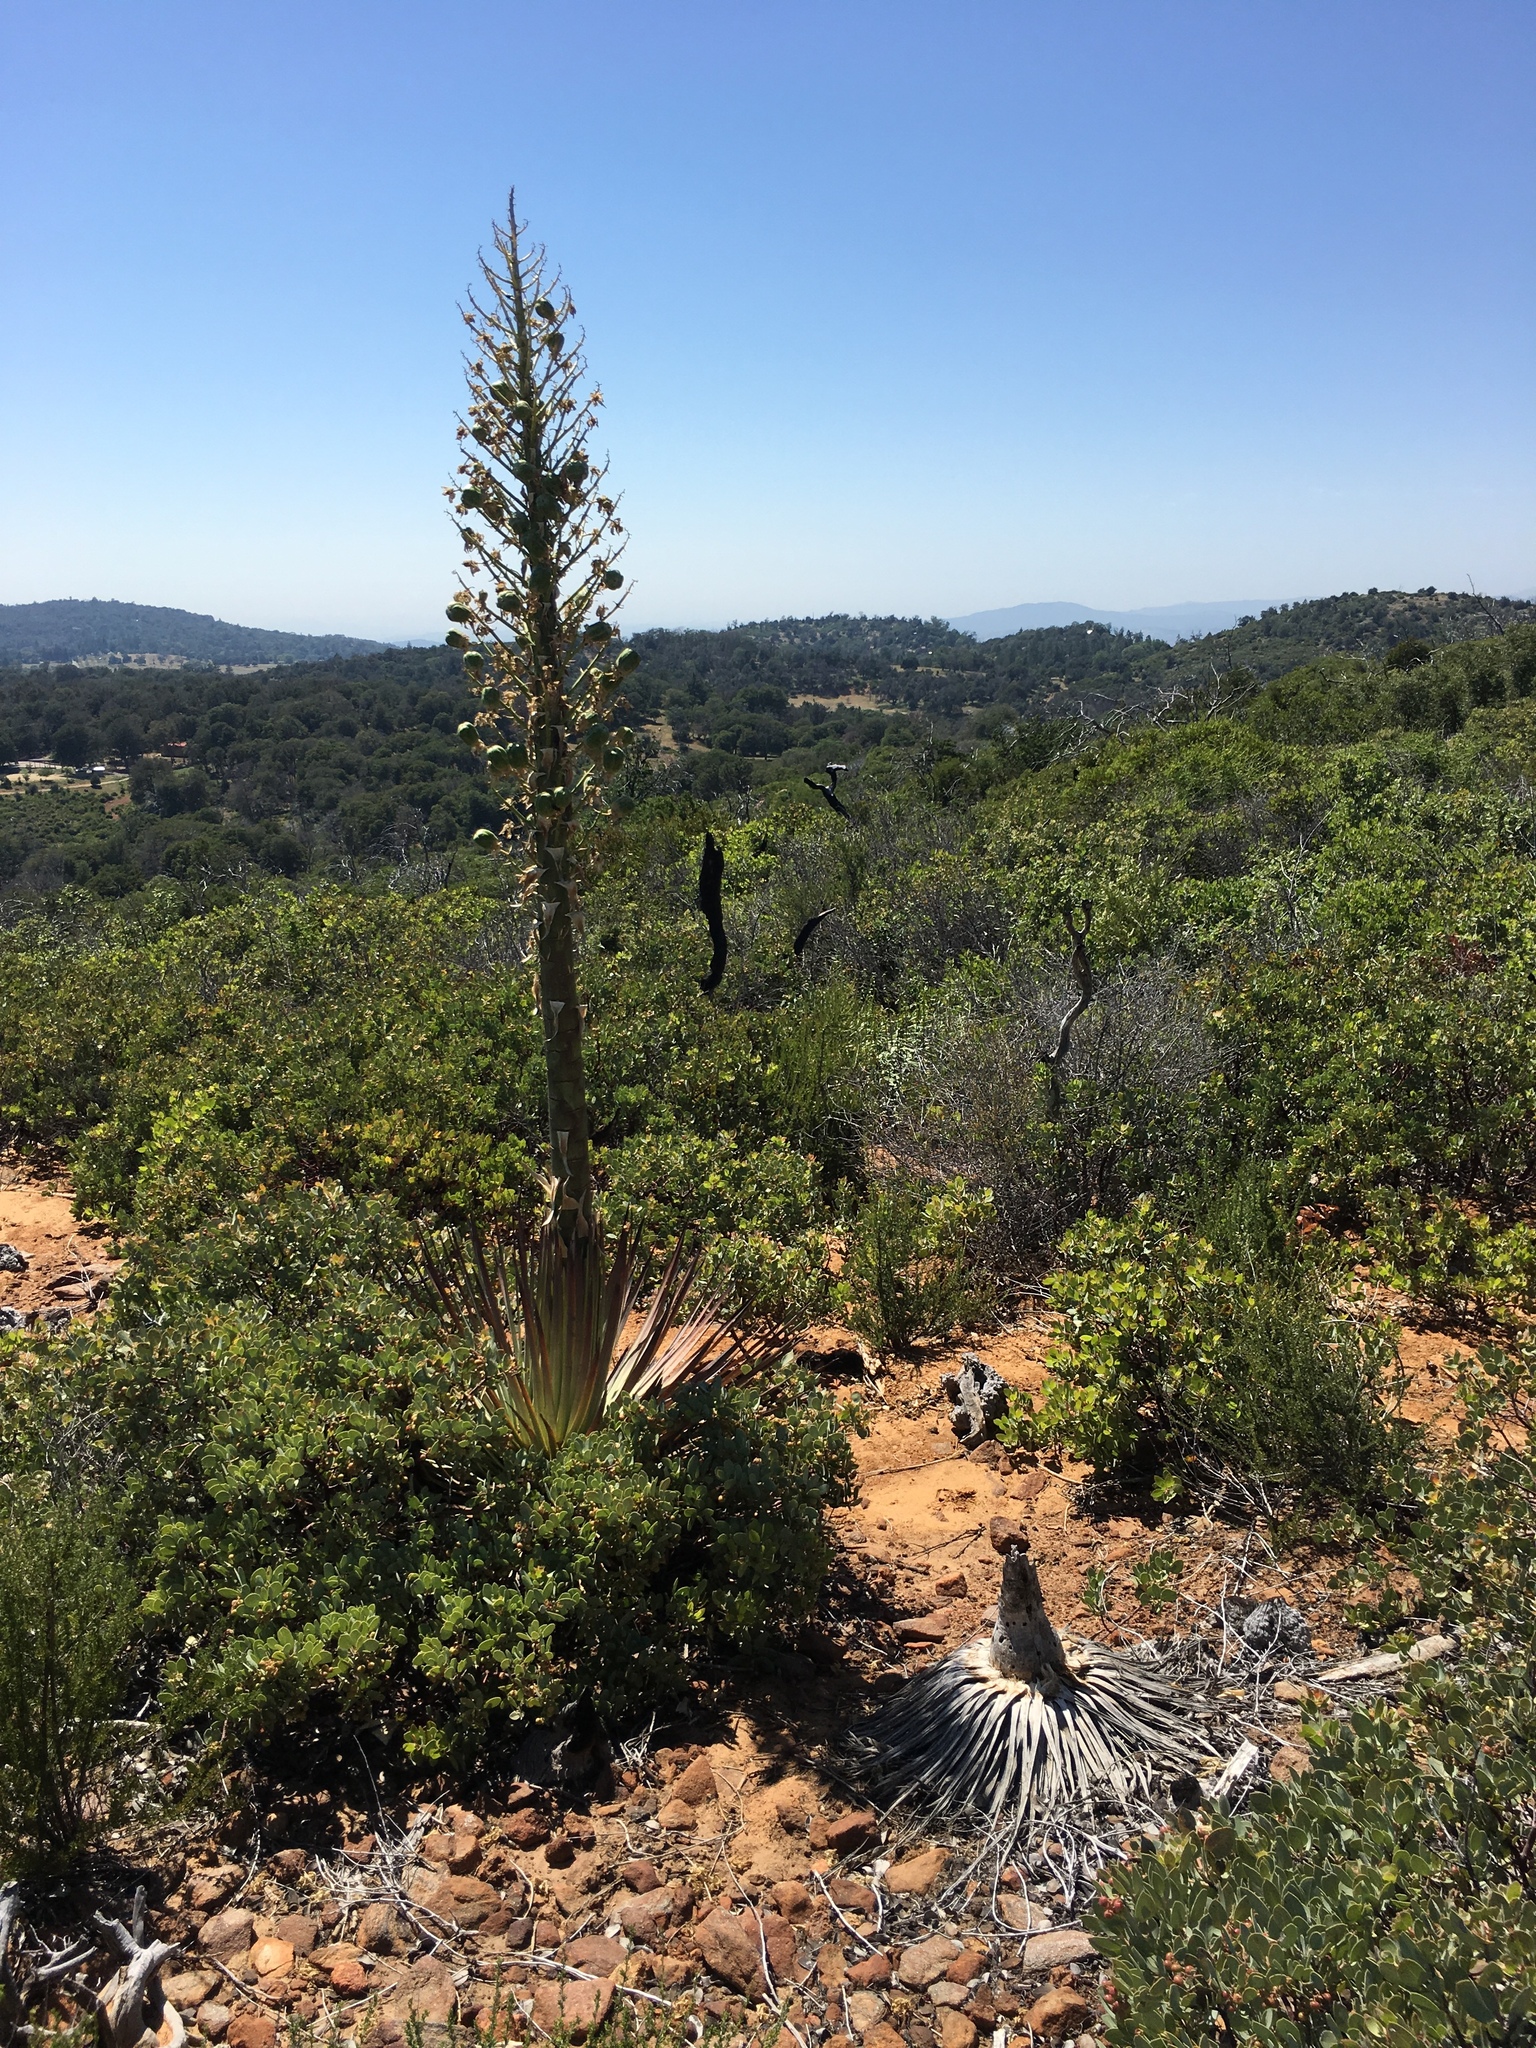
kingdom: Plantae
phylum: Tracheophyta
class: Liliopsida
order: Asparagales
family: Asparagaceae
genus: Hesperoyucca
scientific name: Hesperoyucca whipplei
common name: Our lord's-candle
